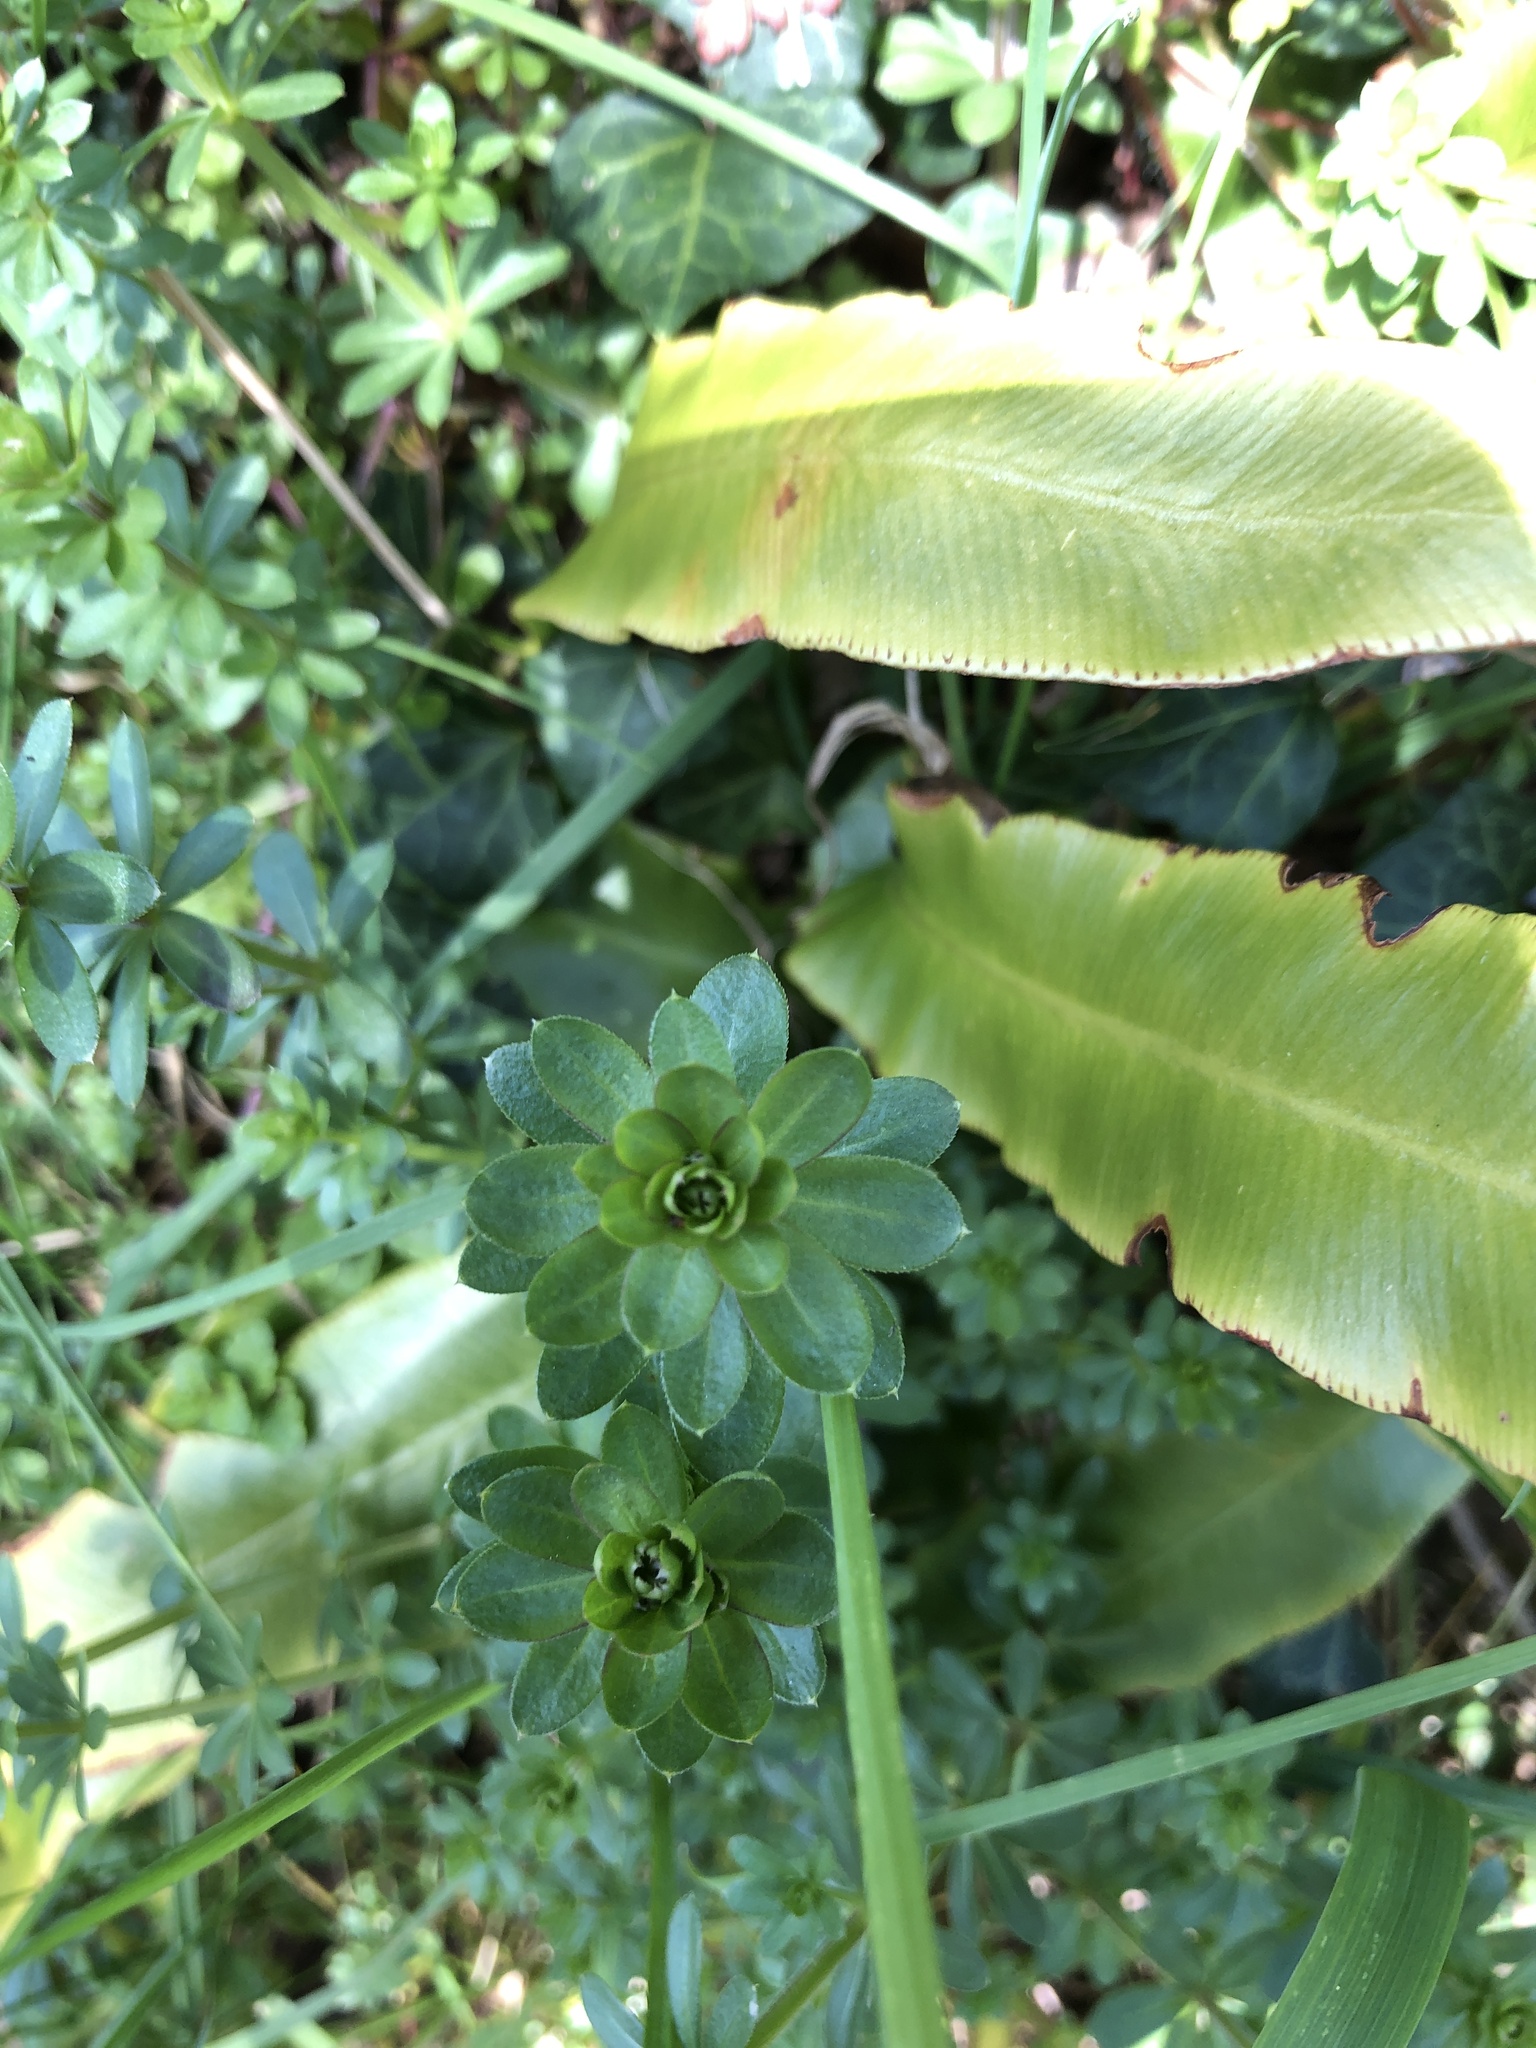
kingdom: Plantae
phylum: Tracheophyta
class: Magnoliopsida
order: Gentianales
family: Rubiaceae
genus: Galium
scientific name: Galium mollugo
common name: Hedge bedstraw
